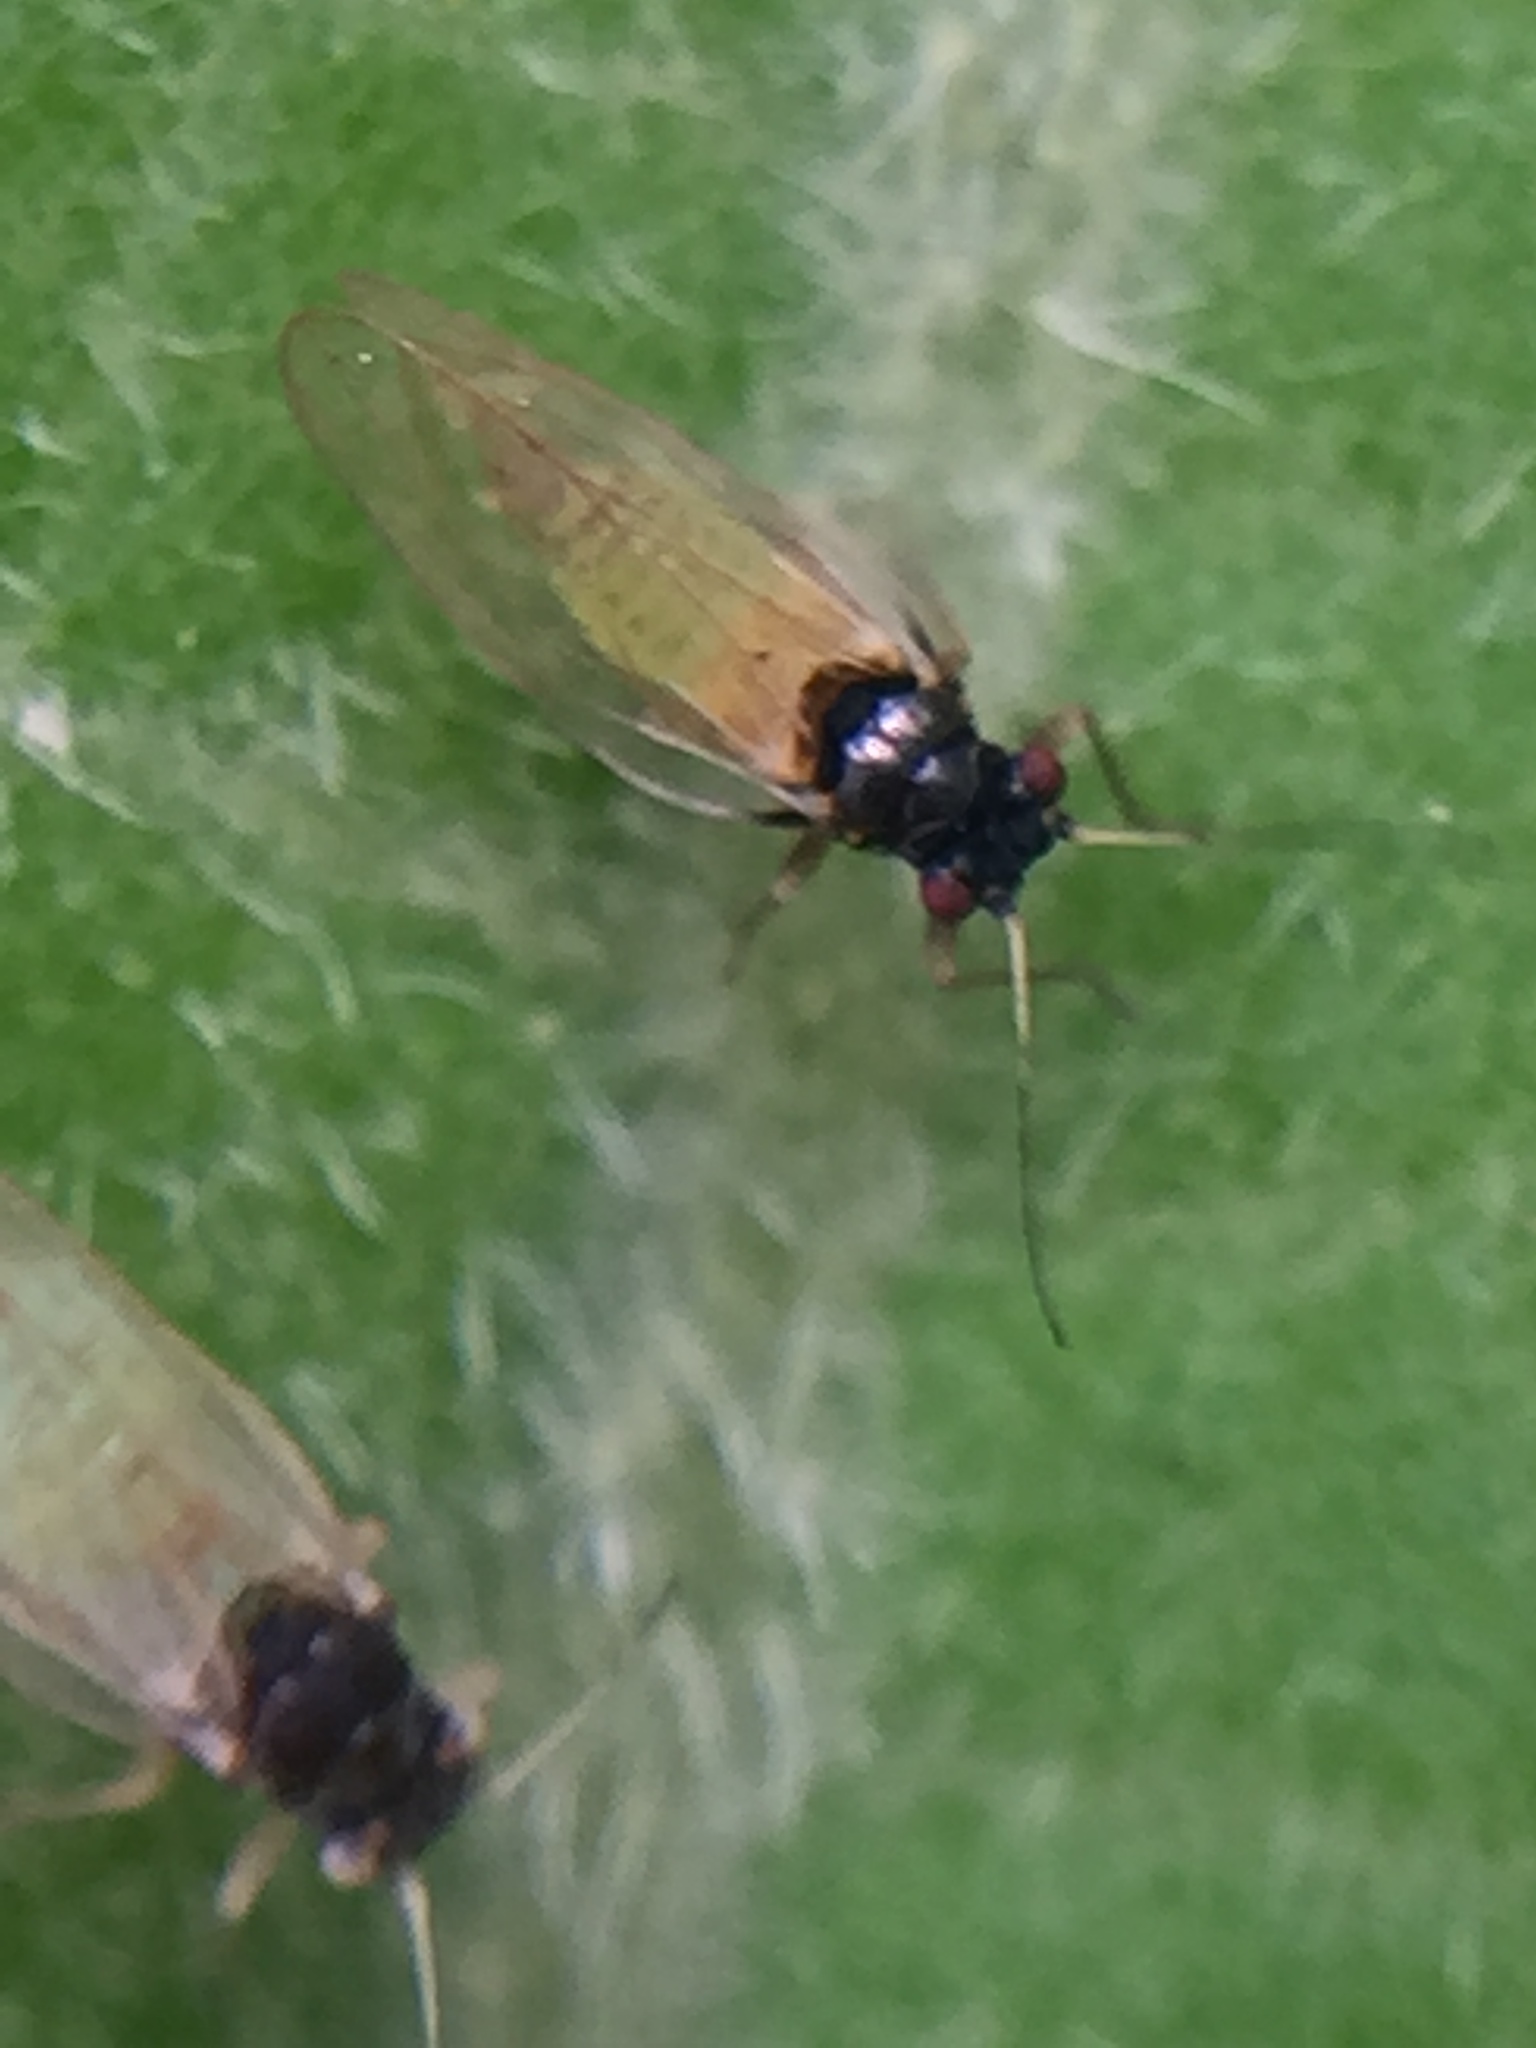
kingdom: Animalia
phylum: Arthropoda
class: Insecta
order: Hemiptera
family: Psyllidae
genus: Acizzia
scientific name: Acizzia solanicola
